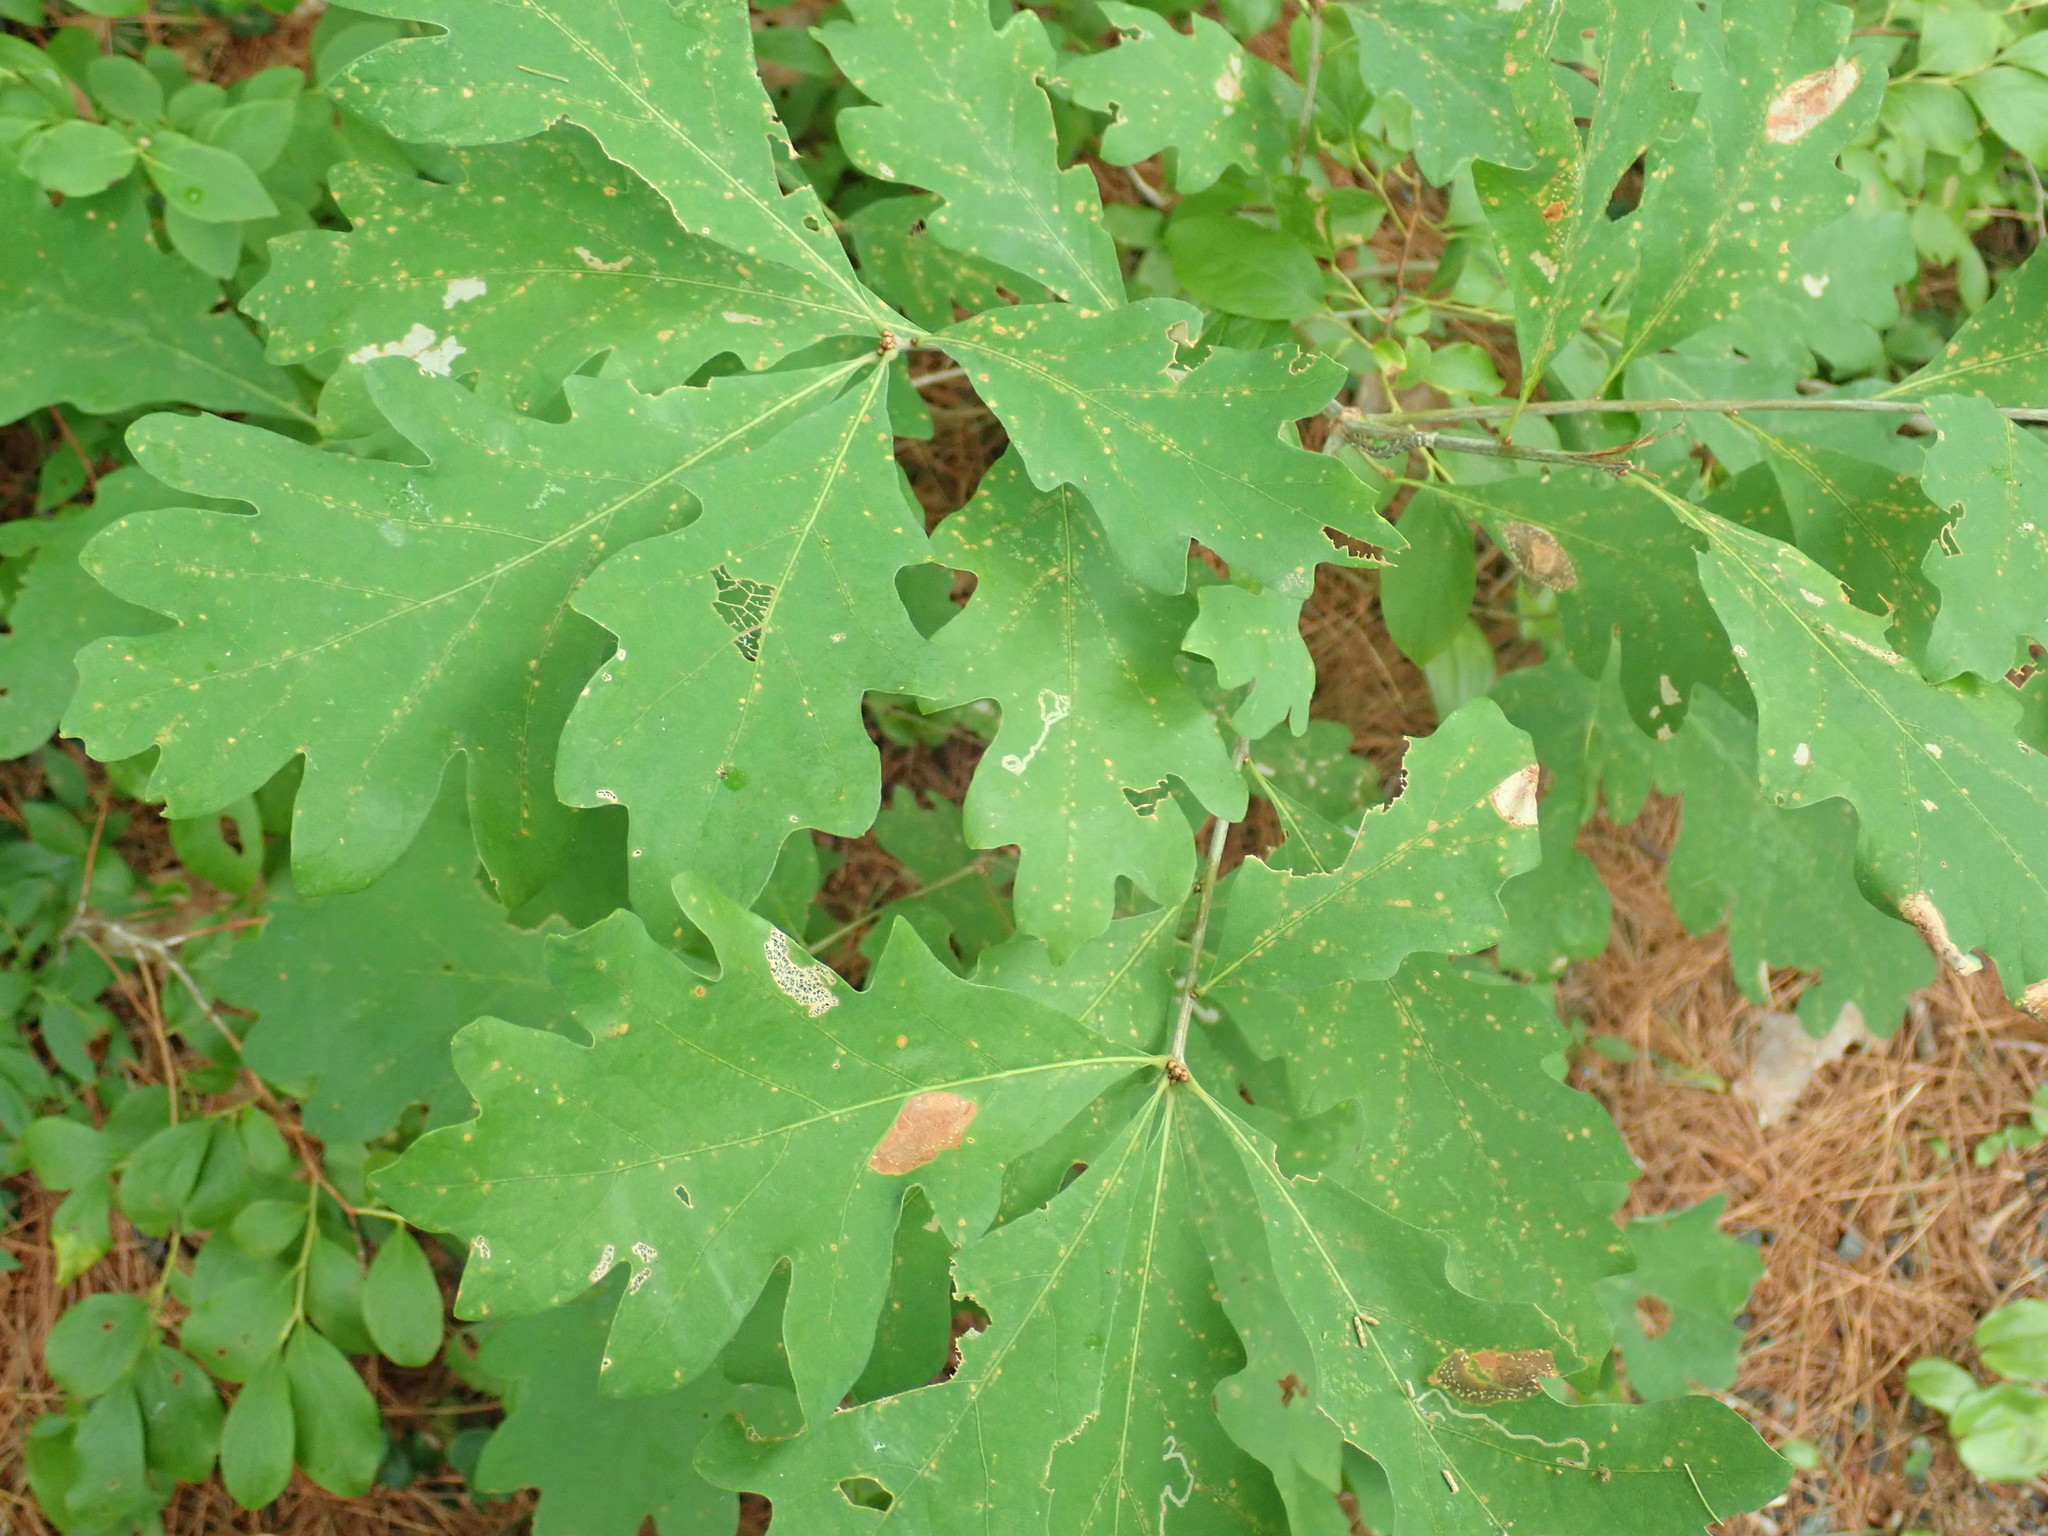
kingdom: Plantae
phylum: Tracheophyta
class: Magnoliopsida
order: Fagales
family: Fagaceae
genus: Quercus
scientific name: Quercus alba
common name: White oak
